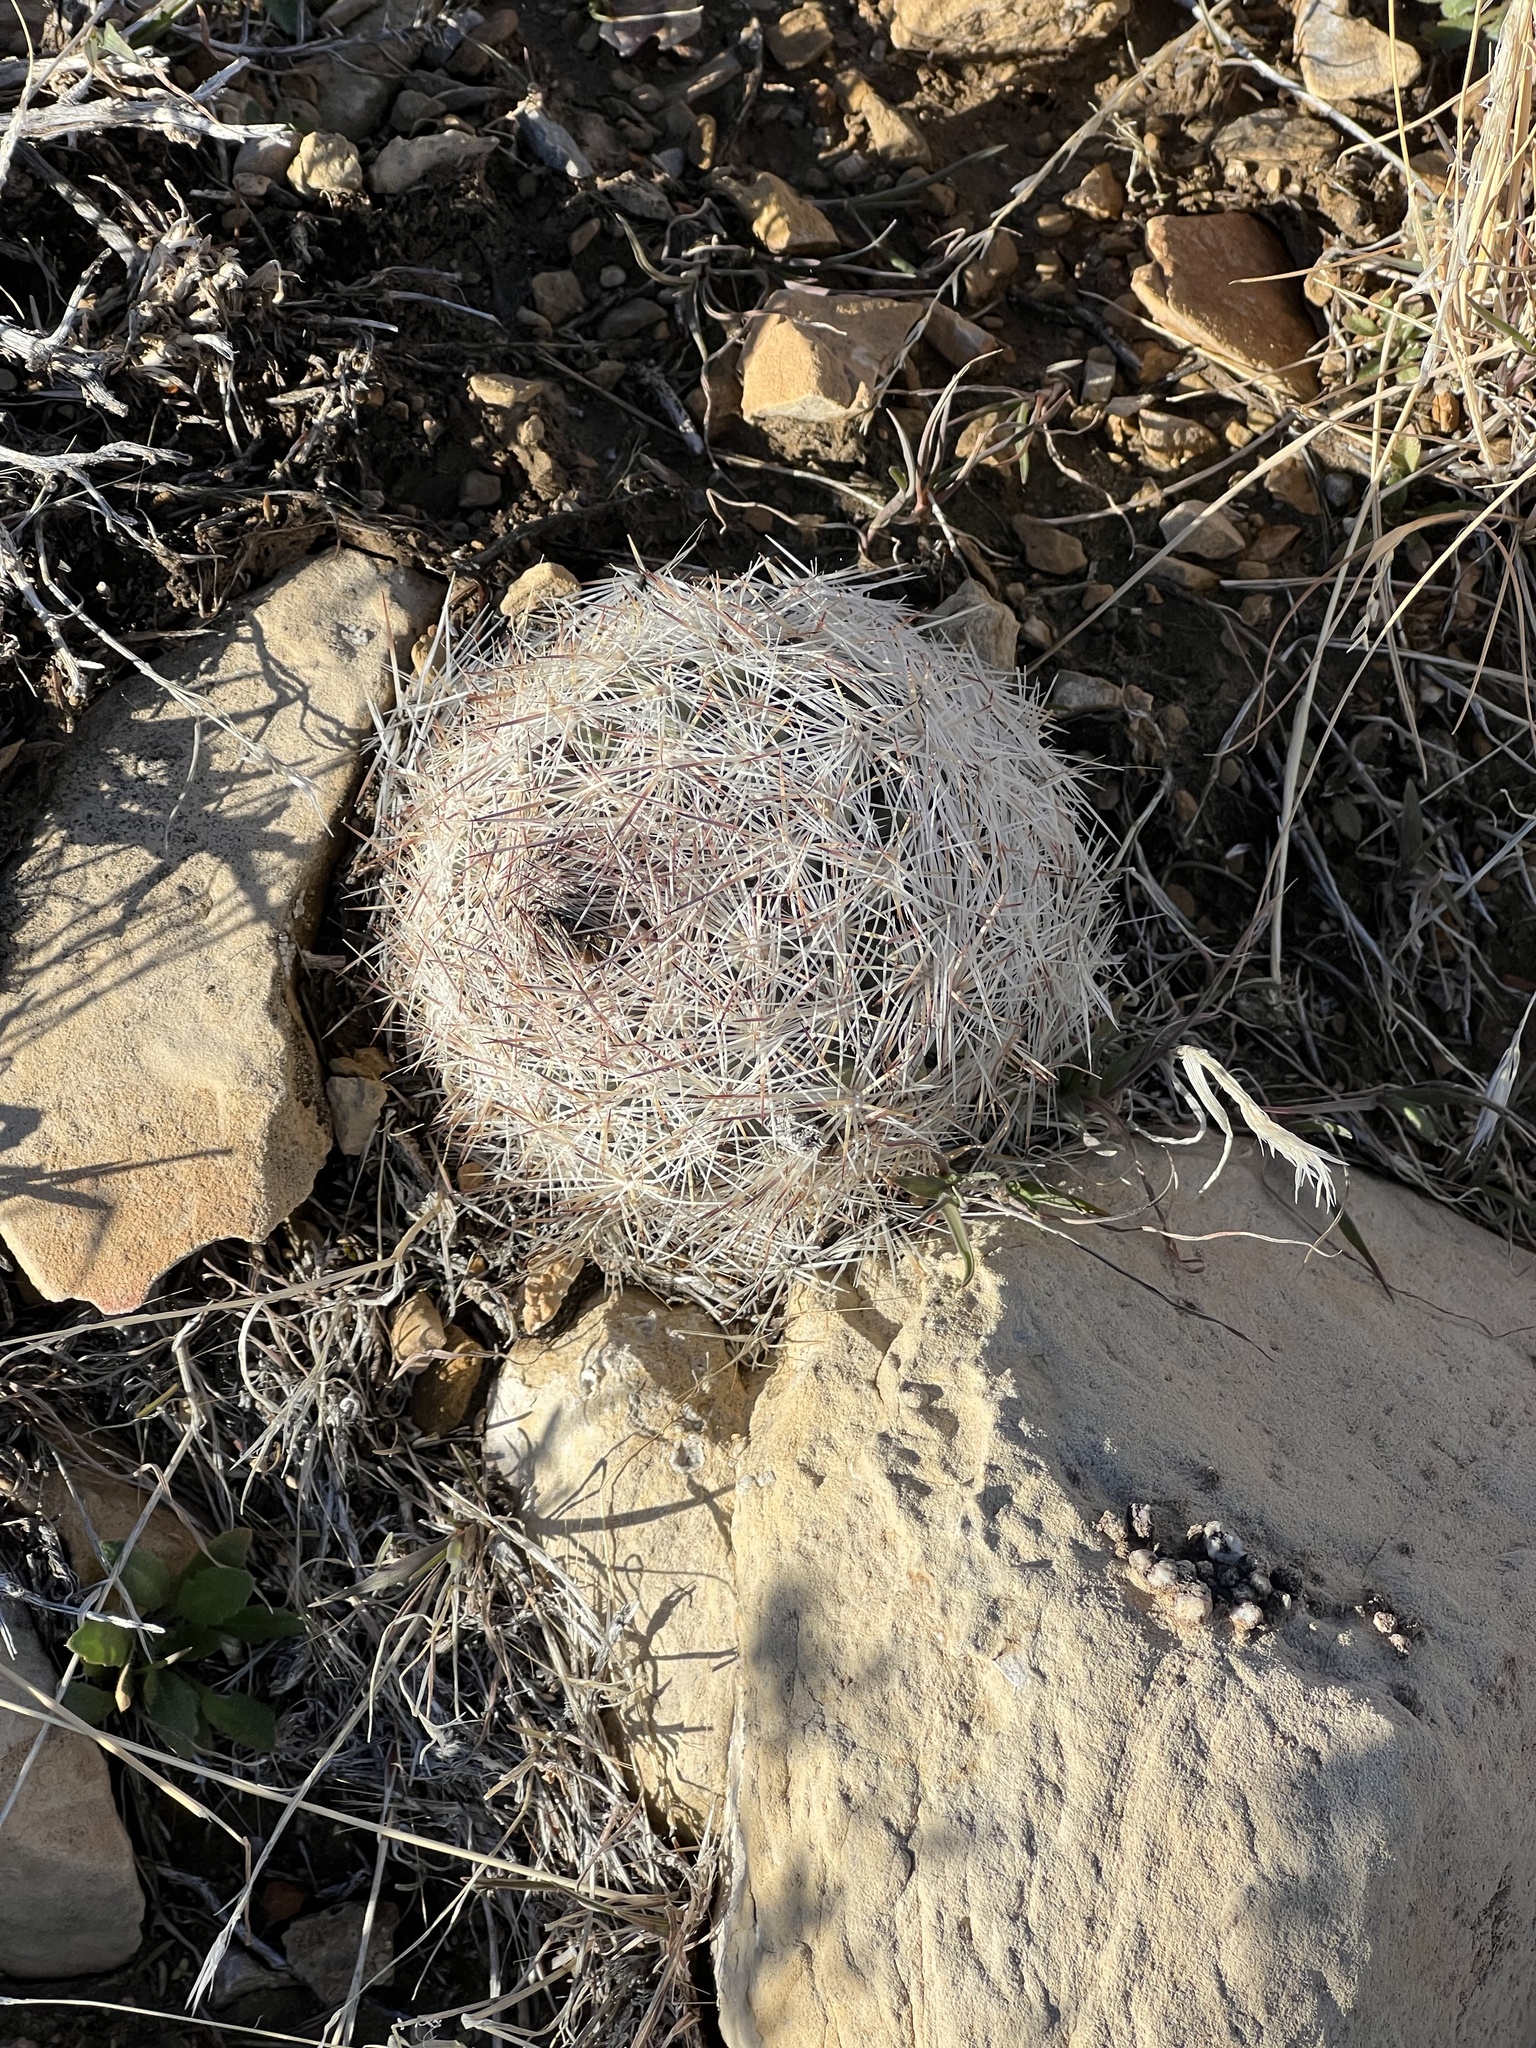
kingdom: Plantae
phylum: Tracheophyta
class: Magnoliopsida
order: Caryophyllales
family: Cactaceae
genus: Pelecyphora
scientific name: Pelecyphora dasyacantha
